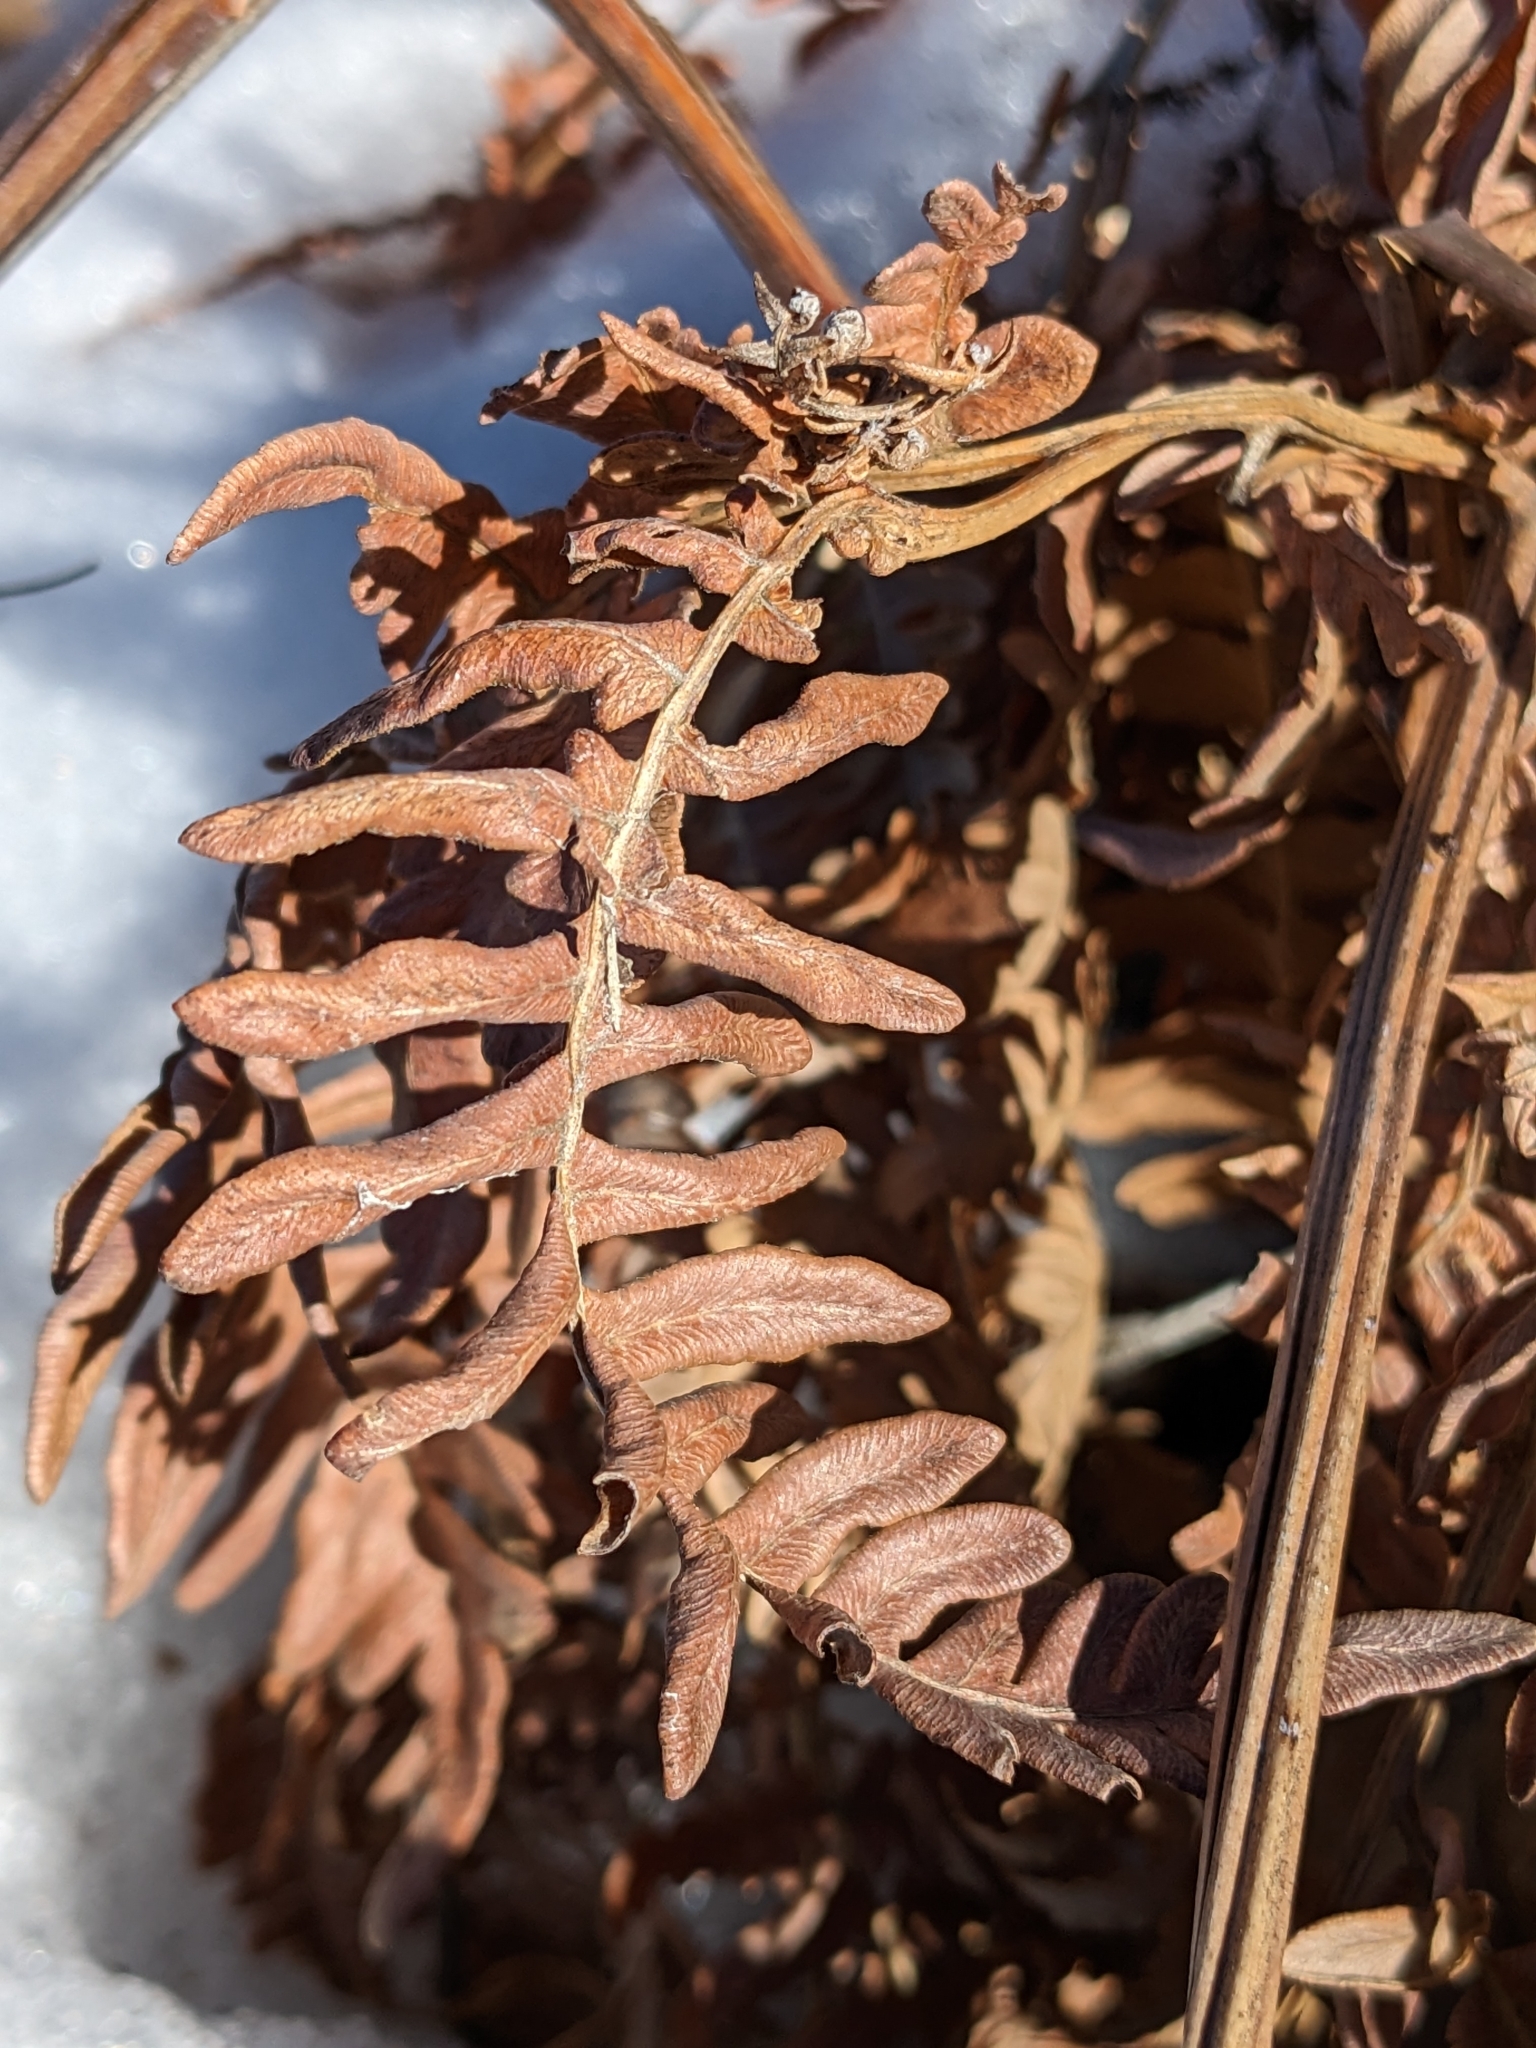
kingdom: Plantae
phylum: Tracheophyta
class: Polypodiopsida
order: Polypodiales
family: Dennstaedtiaceae
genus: Pteridium
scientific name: Pteridium aquilinum
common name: Bracken
